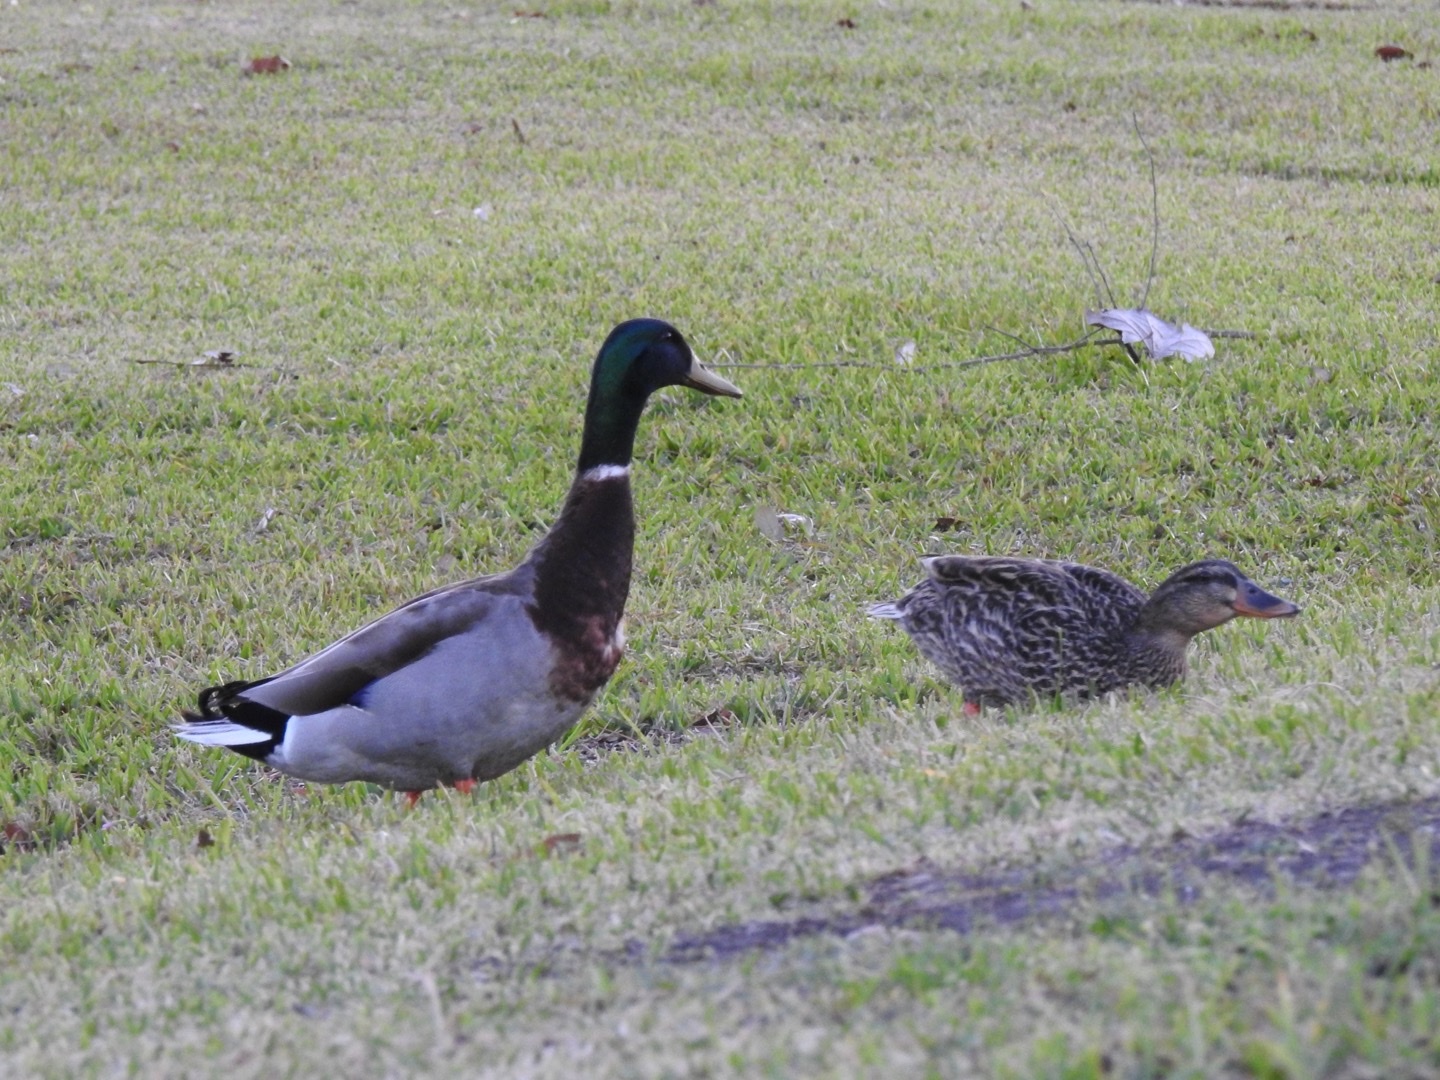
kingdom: Animalia
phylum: Chordata
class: Aves
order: Anseriformes
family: Anatidae
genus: Anas
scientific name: Anas platyrhynchos
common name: Mallard
